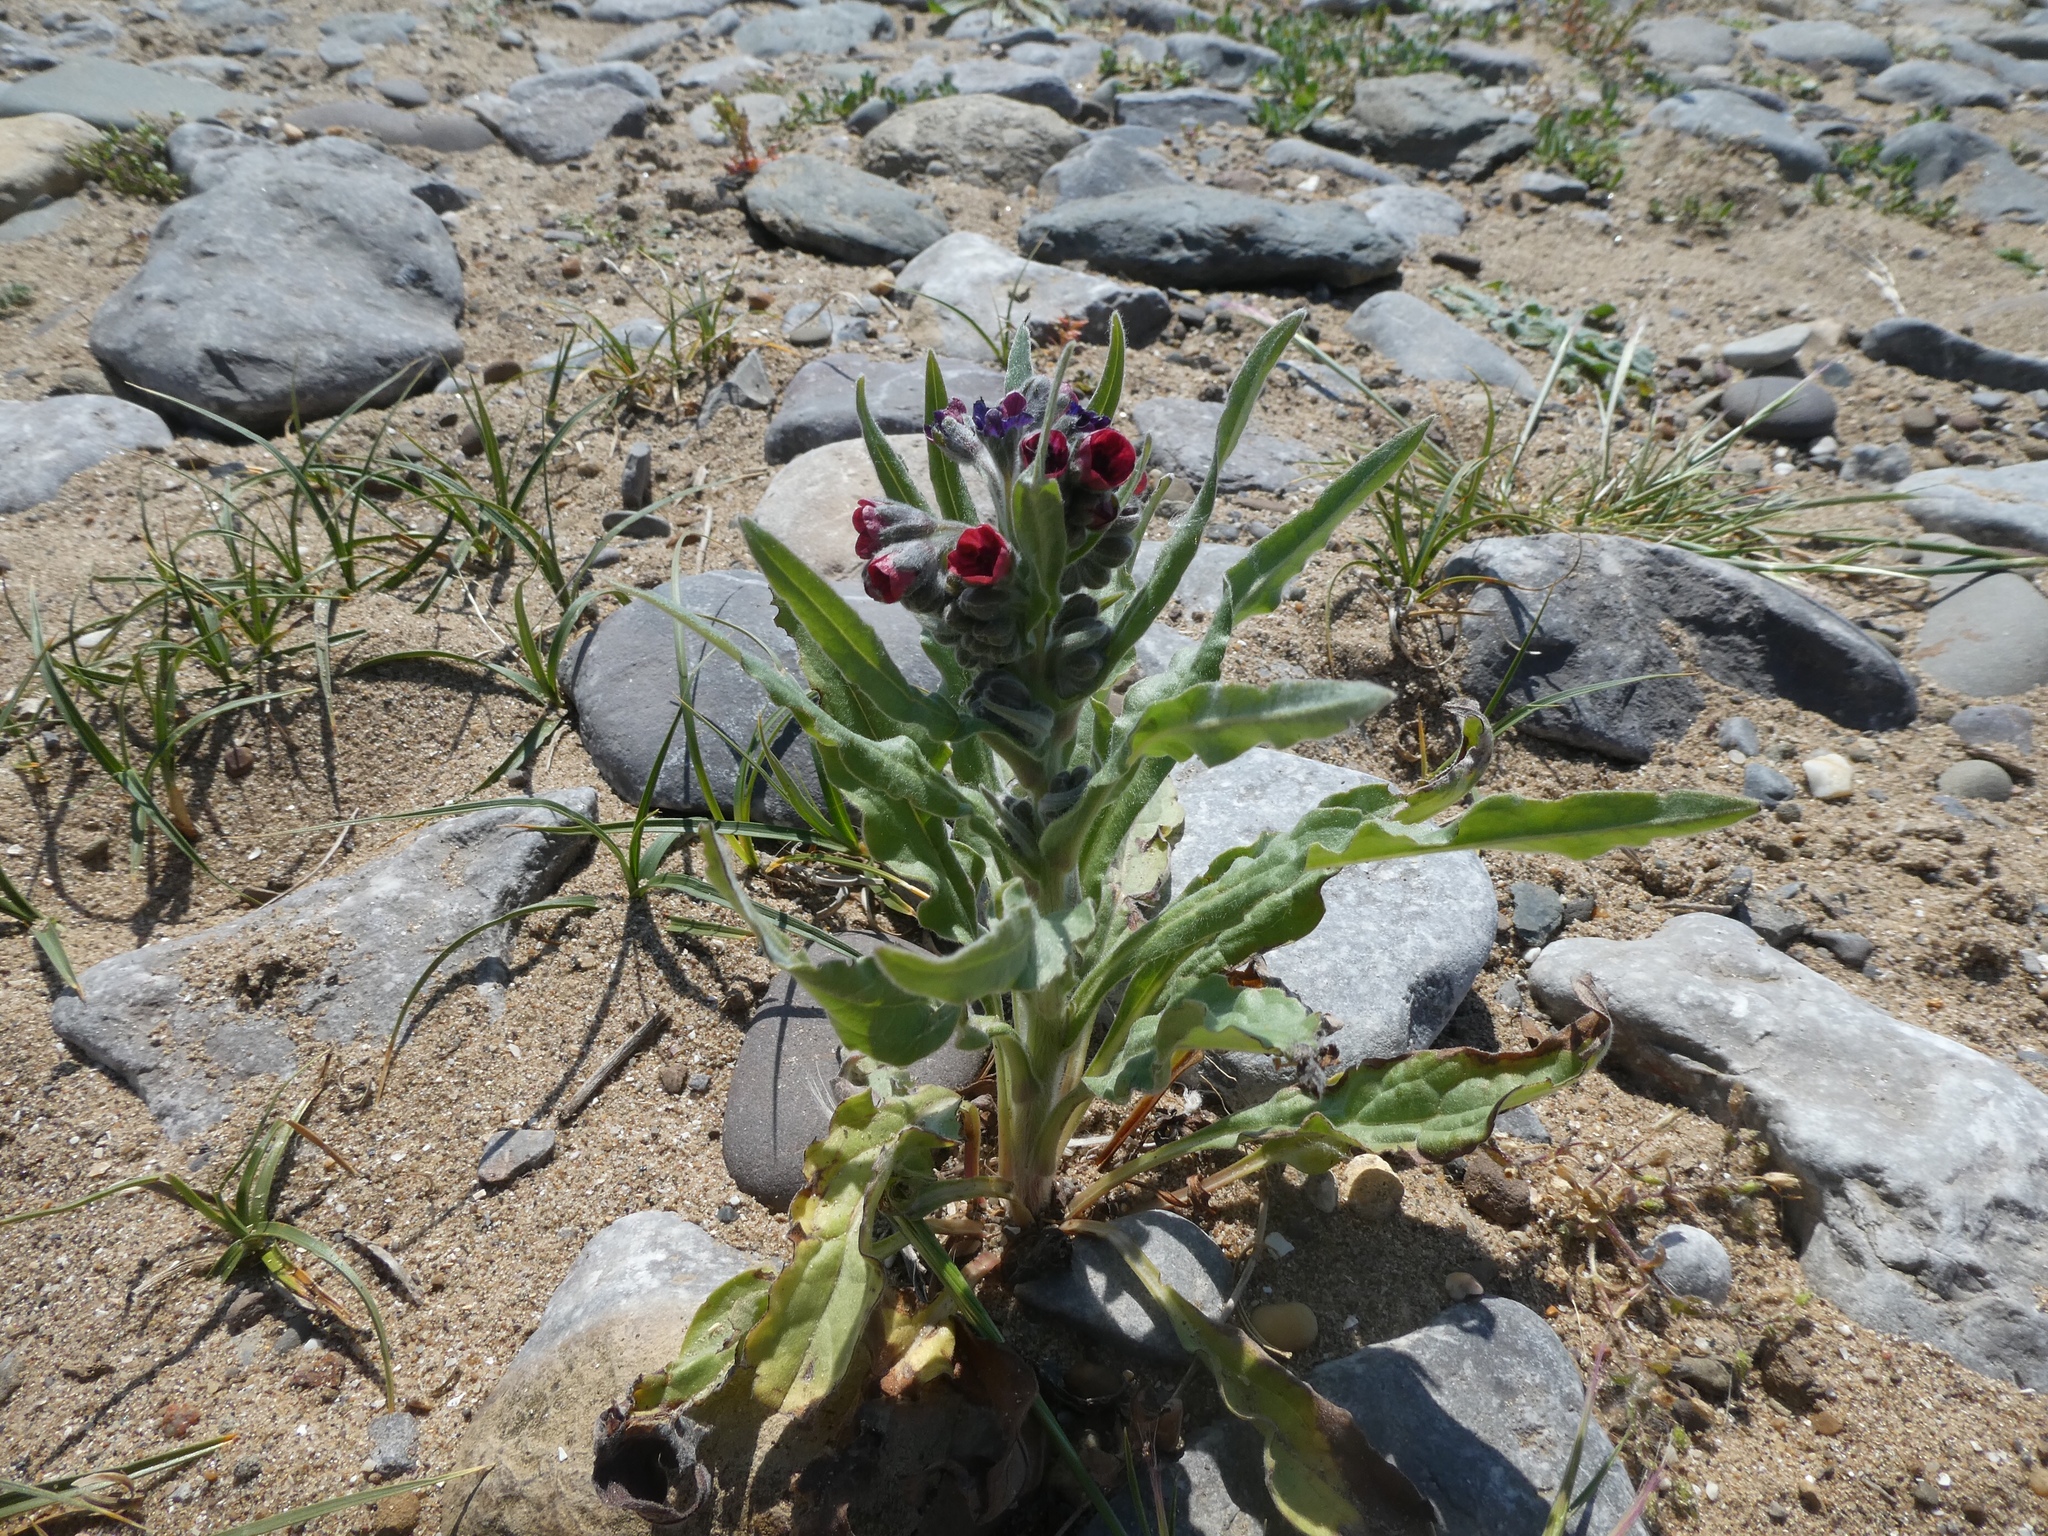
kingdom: Plantae
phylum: Tracheophyta
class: Magnoliopsida
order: Boraginales
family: Boraginaceae
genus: Cynoglossum
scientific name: Cynoglossum officinale
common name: Hound's-tongue
